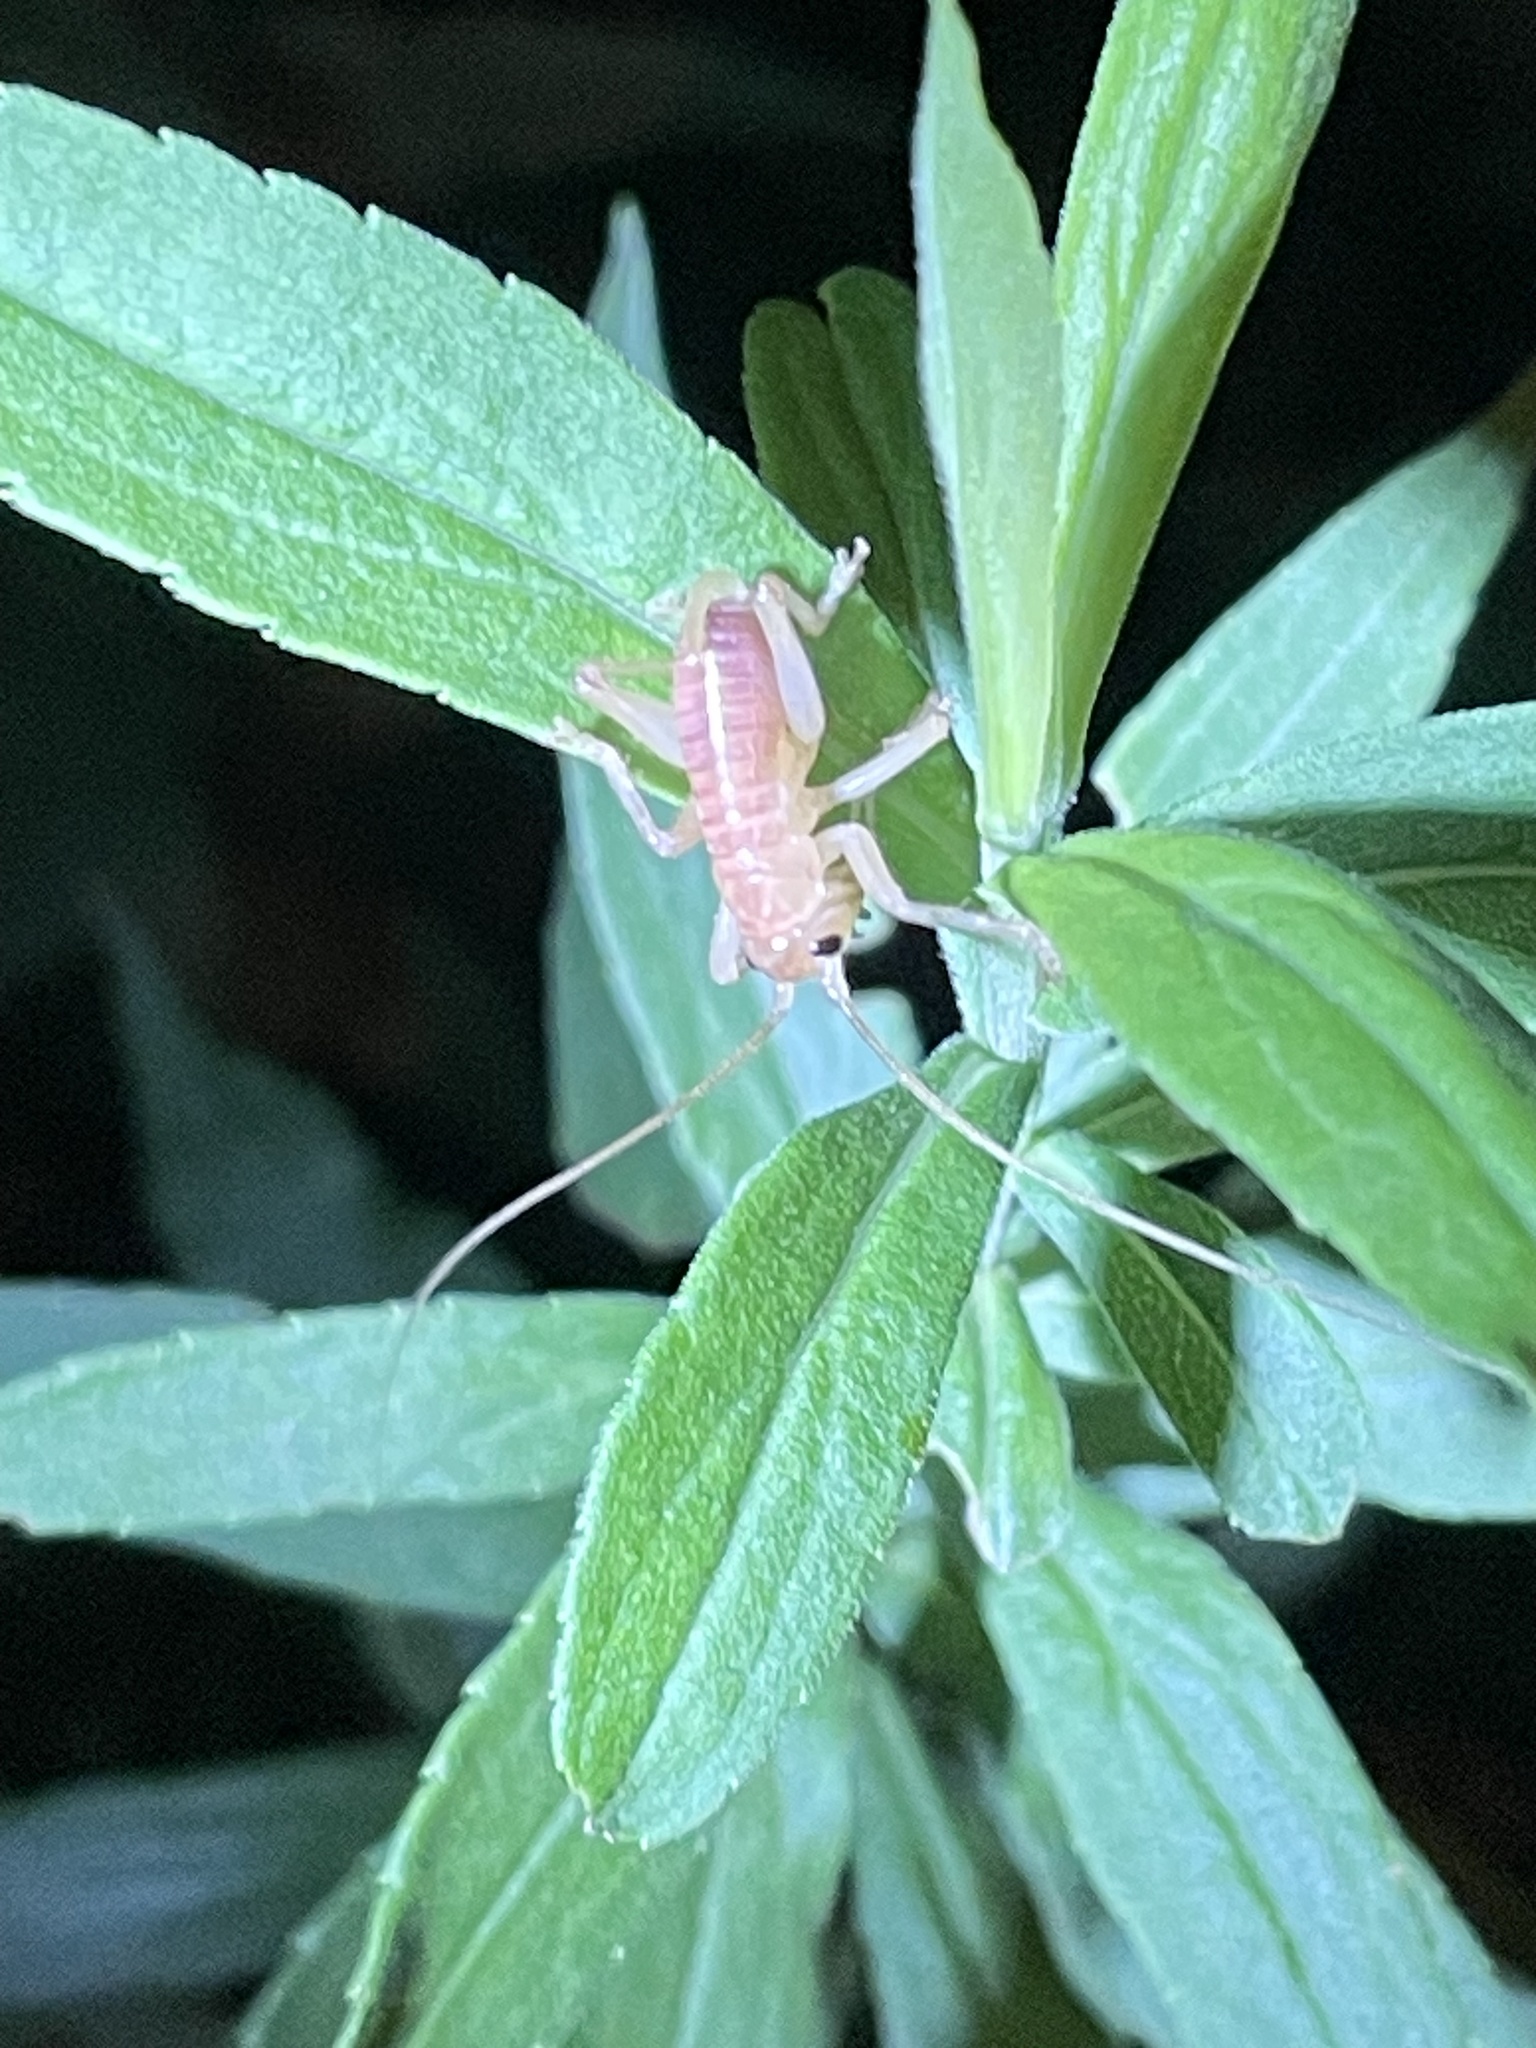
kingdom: Animalia
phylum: Arthropoda
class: Insecta
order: Orthoptera
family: Gryllacrididae
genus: Camptonotus
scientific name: Camptonotus carolinensis
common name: Carolina leaf-roller
